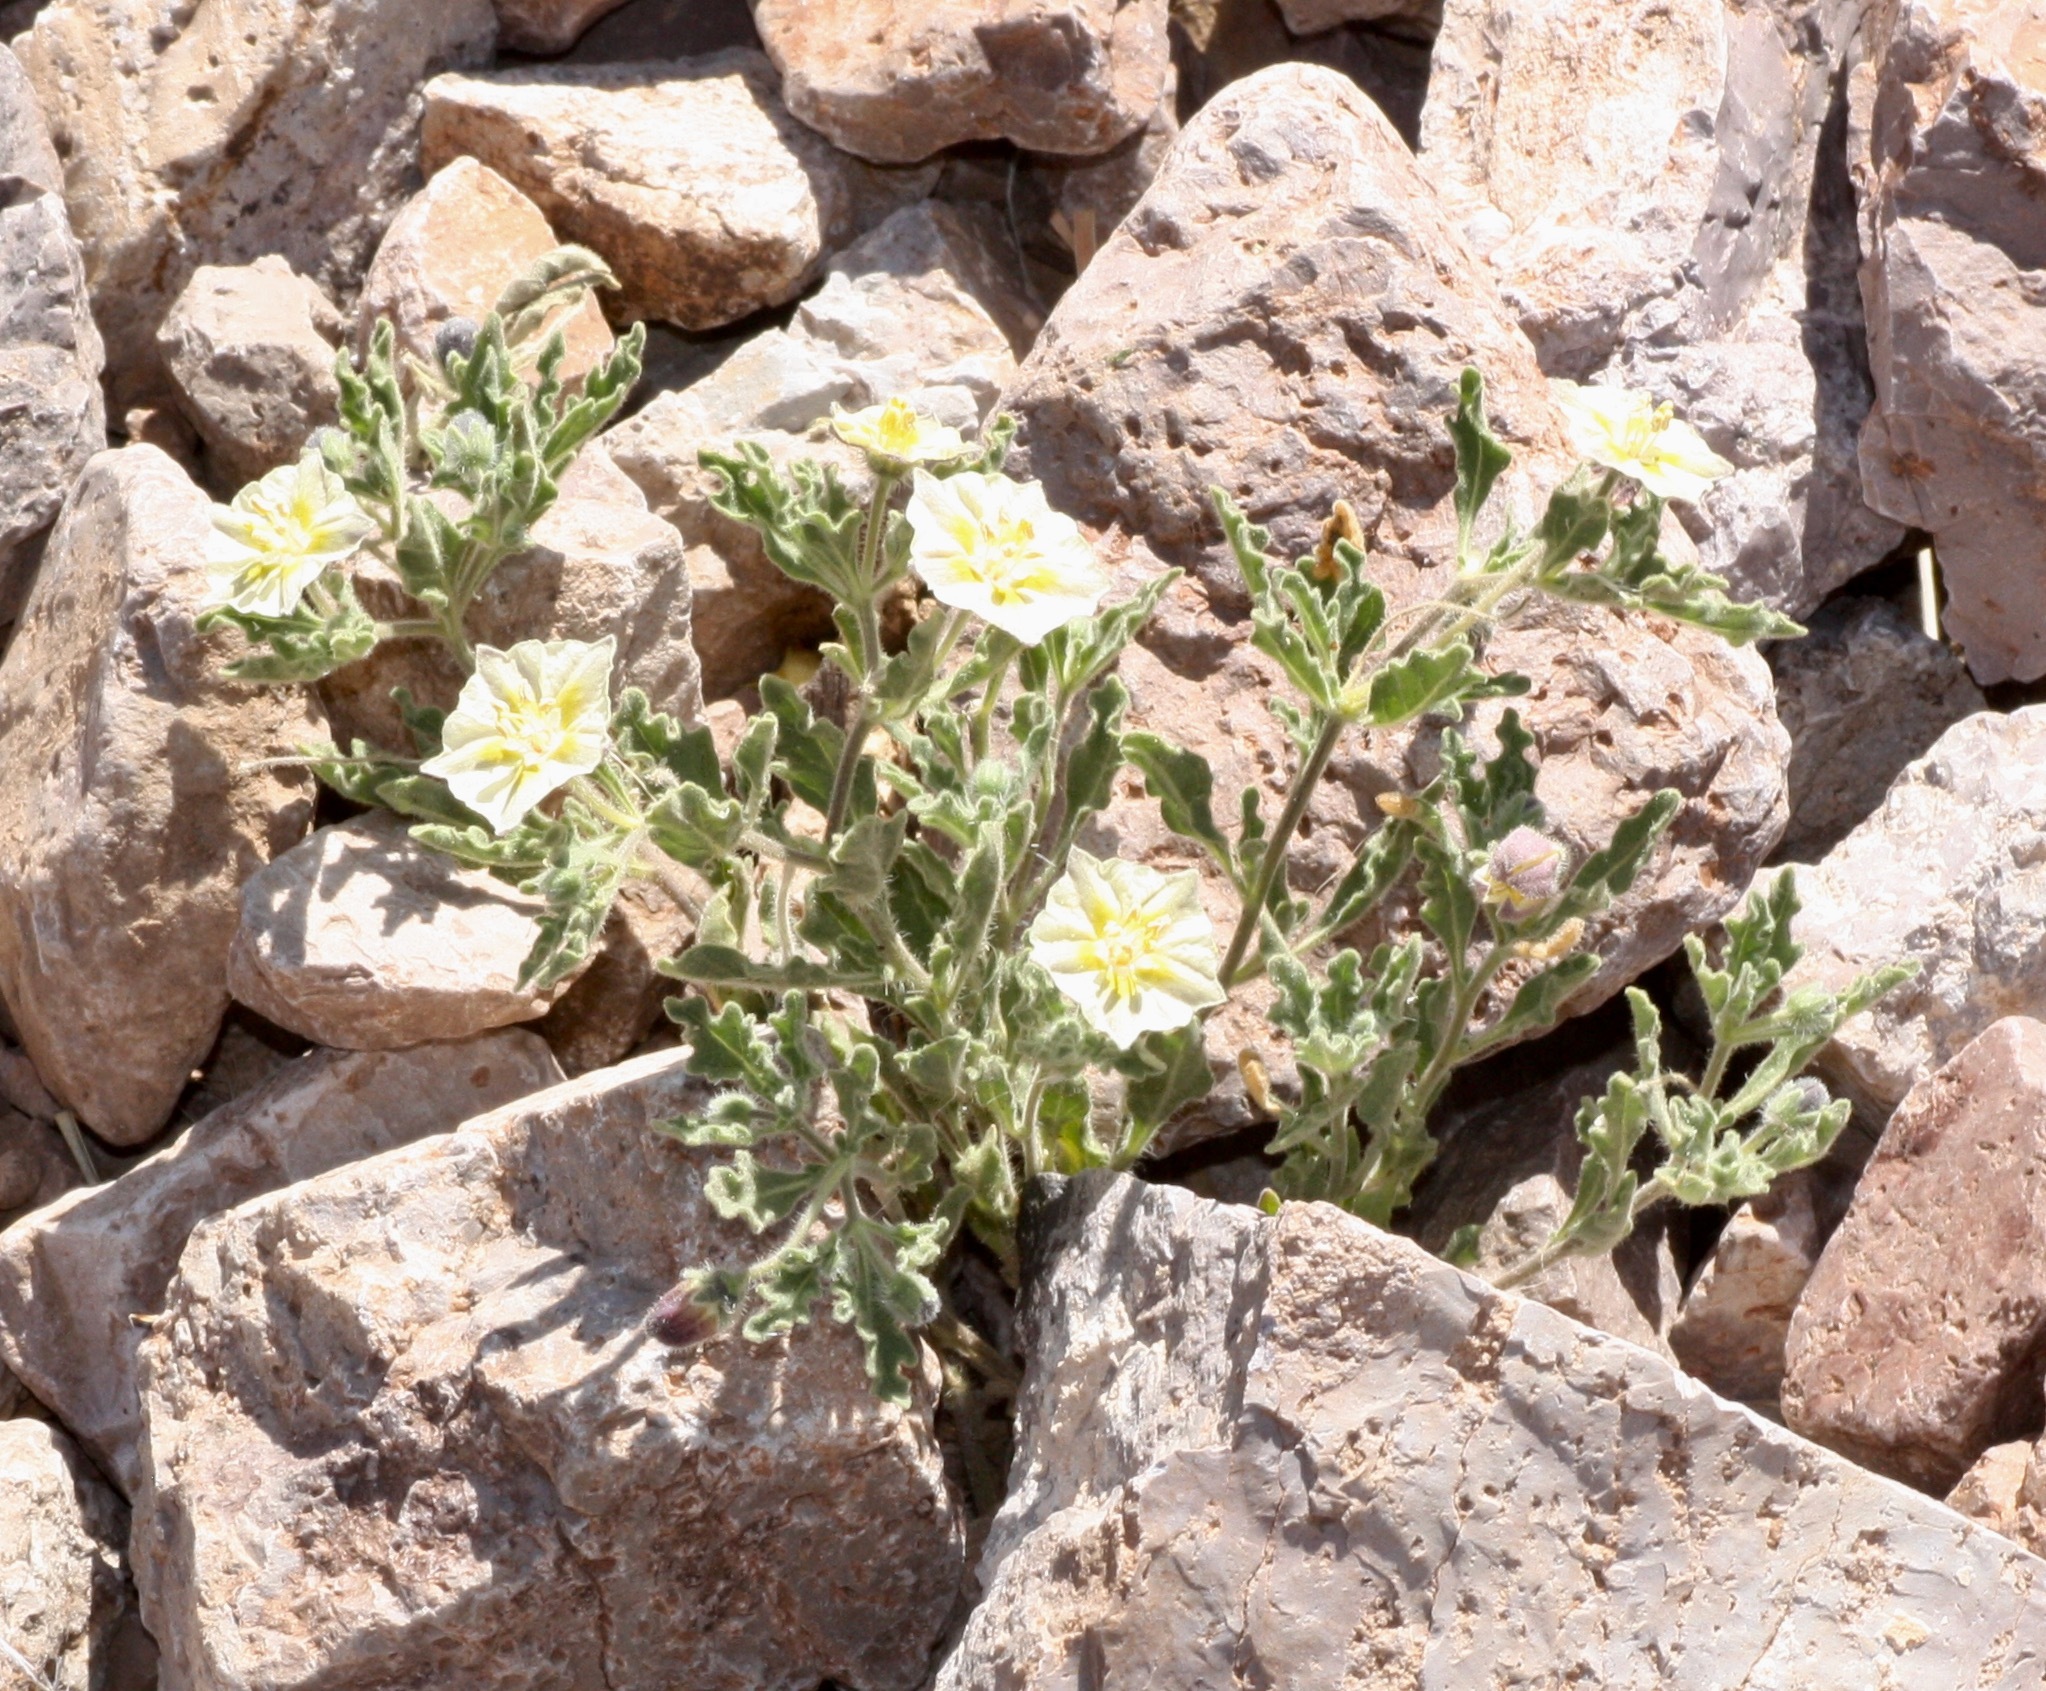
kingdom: Plantae
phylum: Tracheophyta
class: Magnoliopsida
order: Solanales
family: Solanaceae
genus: Chamaesaracha
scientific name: Chamaesaracha sordida
